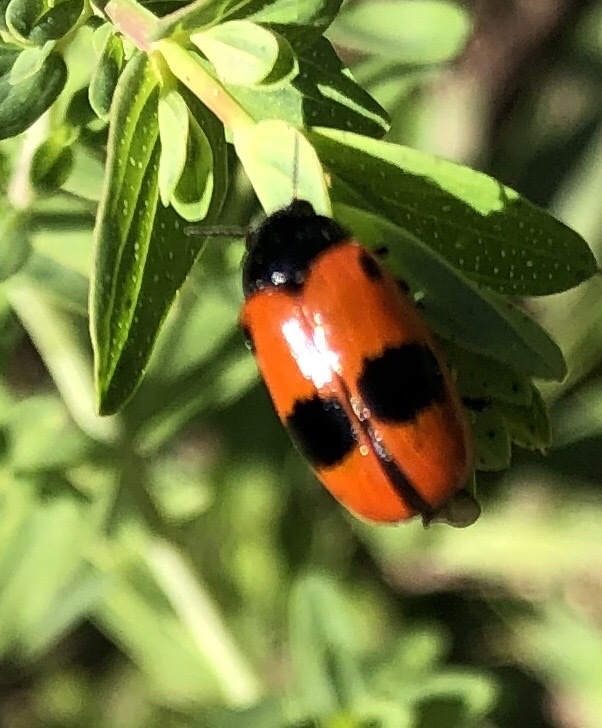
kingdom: Animalia
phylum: Arthropoda
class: Insecta
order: Coleoptera
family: Chrysomelidae
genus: Clytra
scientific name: Clytra laeviuscula
